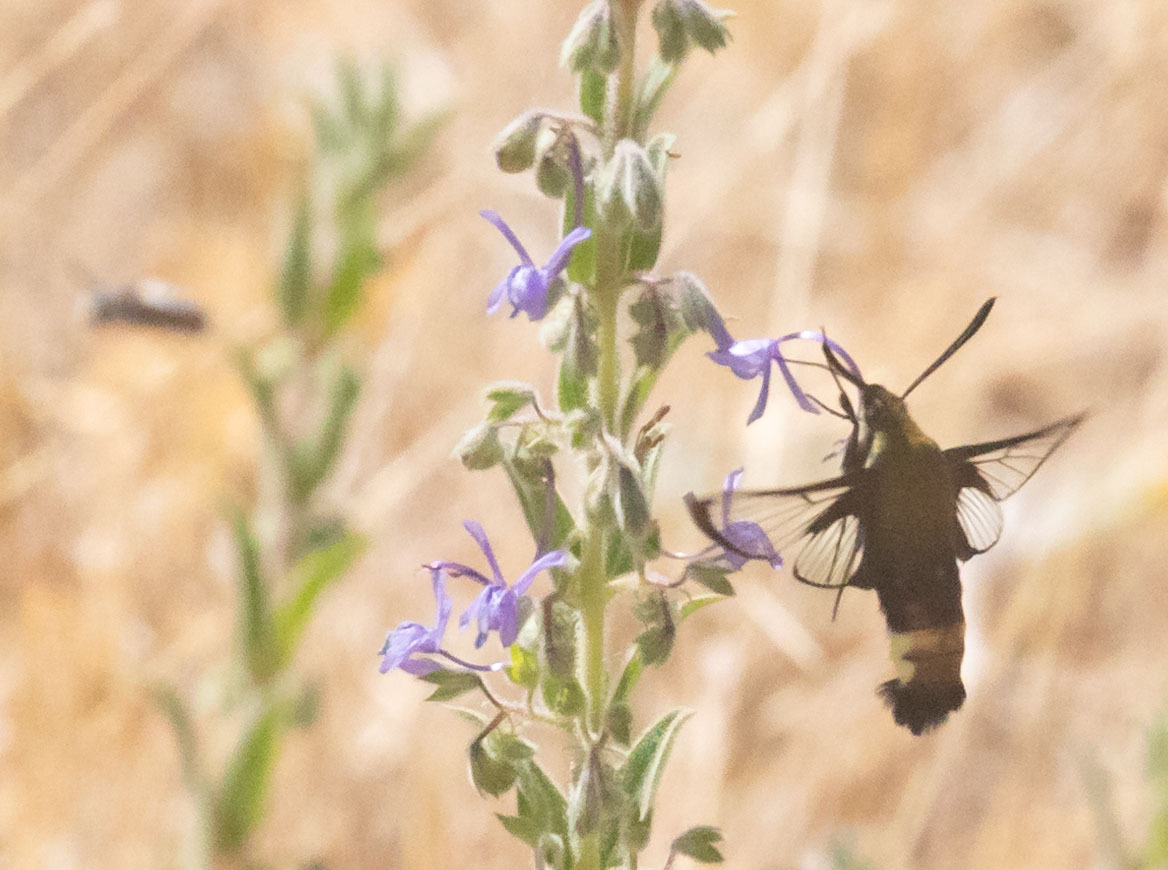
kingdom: Animalia
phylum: Arthropoda
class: Insecta
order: Lepidoptera
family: Sphingidae
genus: Hemaris
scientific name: Hemaris thetis
